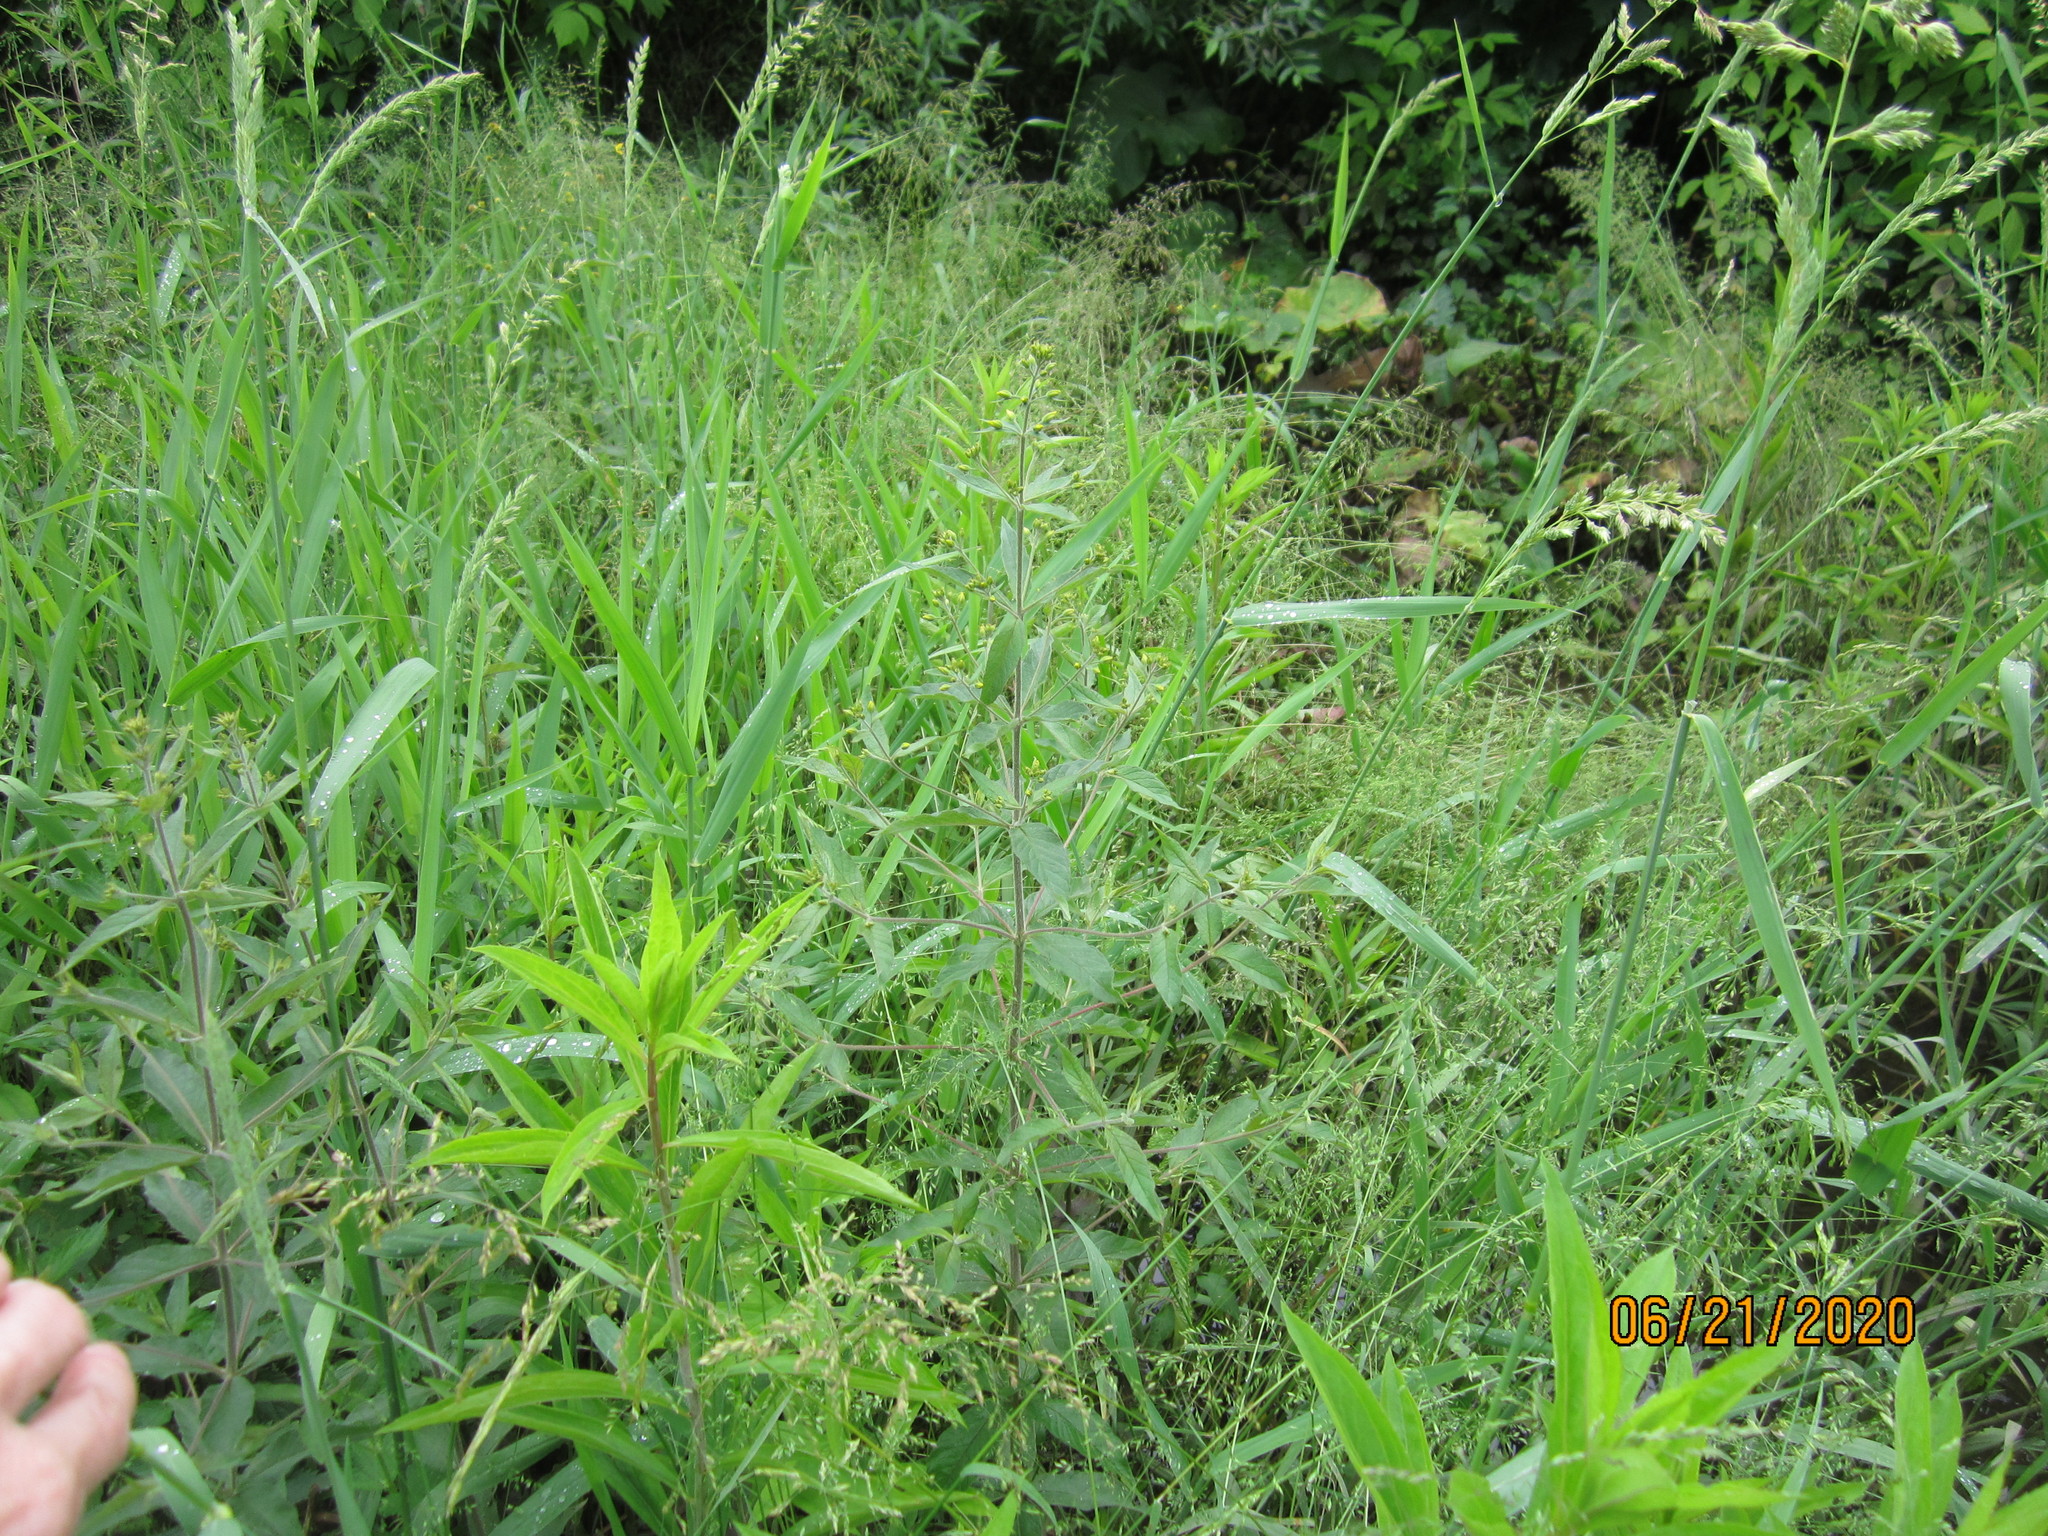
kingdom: Plantae
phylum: Tracheophyta
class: Magnoliopsida
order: Ericales
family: Primulaceae
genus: Lysimachia
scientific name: Lysimachia vulgaris
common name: Yellow loosestrife
